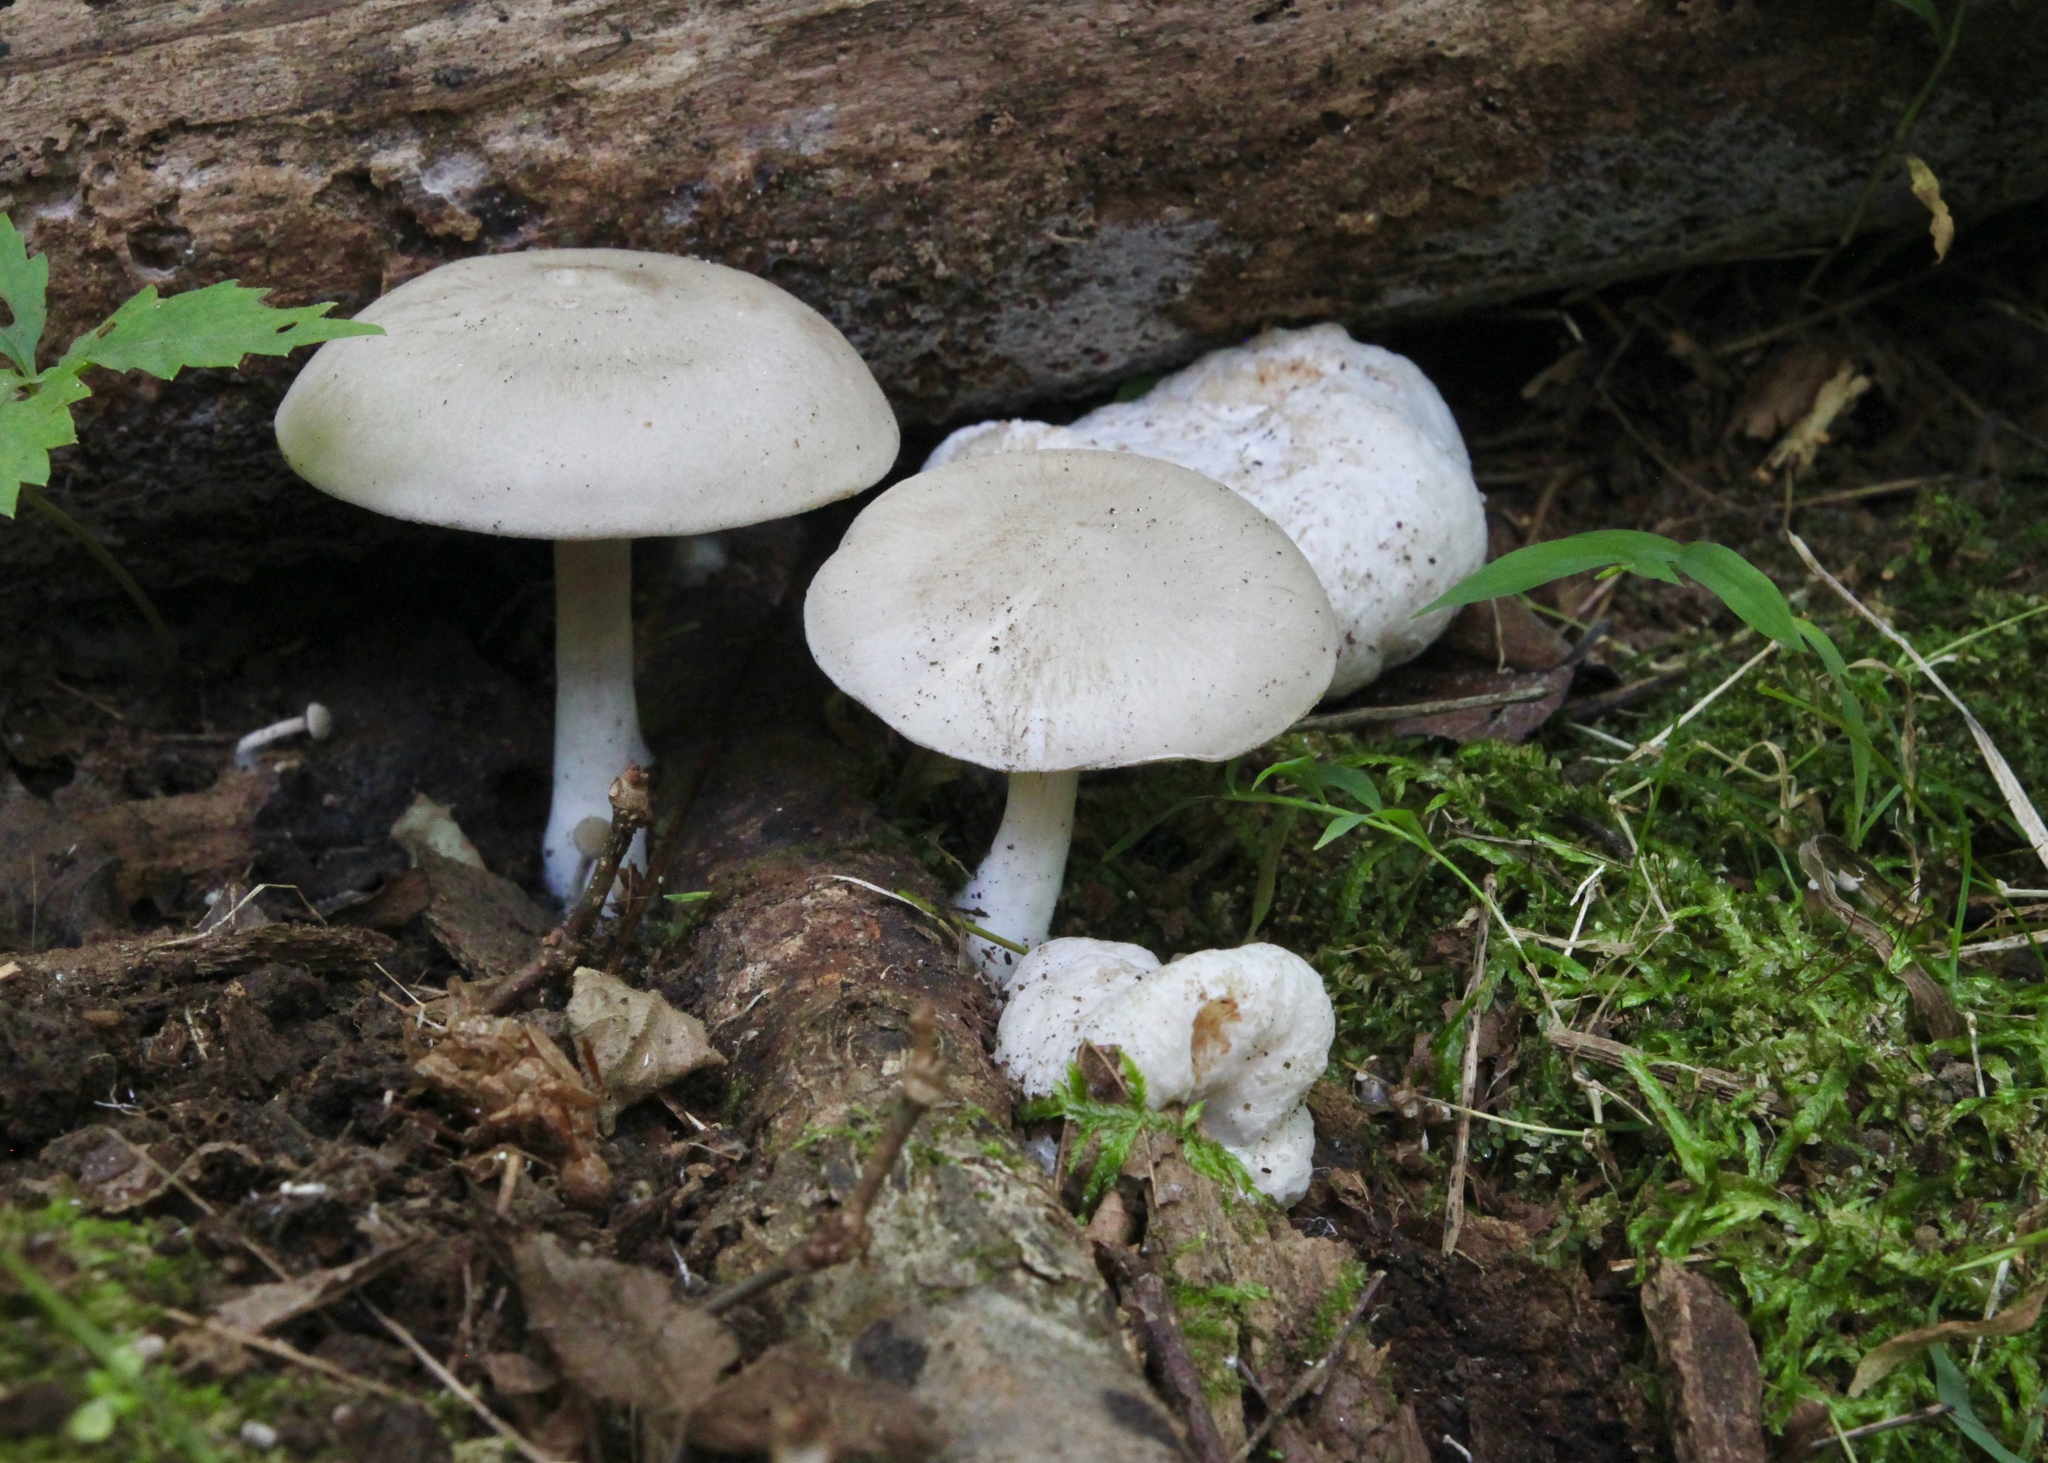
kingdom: Fungi
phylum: Basidiomycota
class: Agaricomycetes
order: Agaricales
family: Entolomataceae
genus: Entoloma
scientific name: Entoloma abortivum
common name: Aborted entoloma
